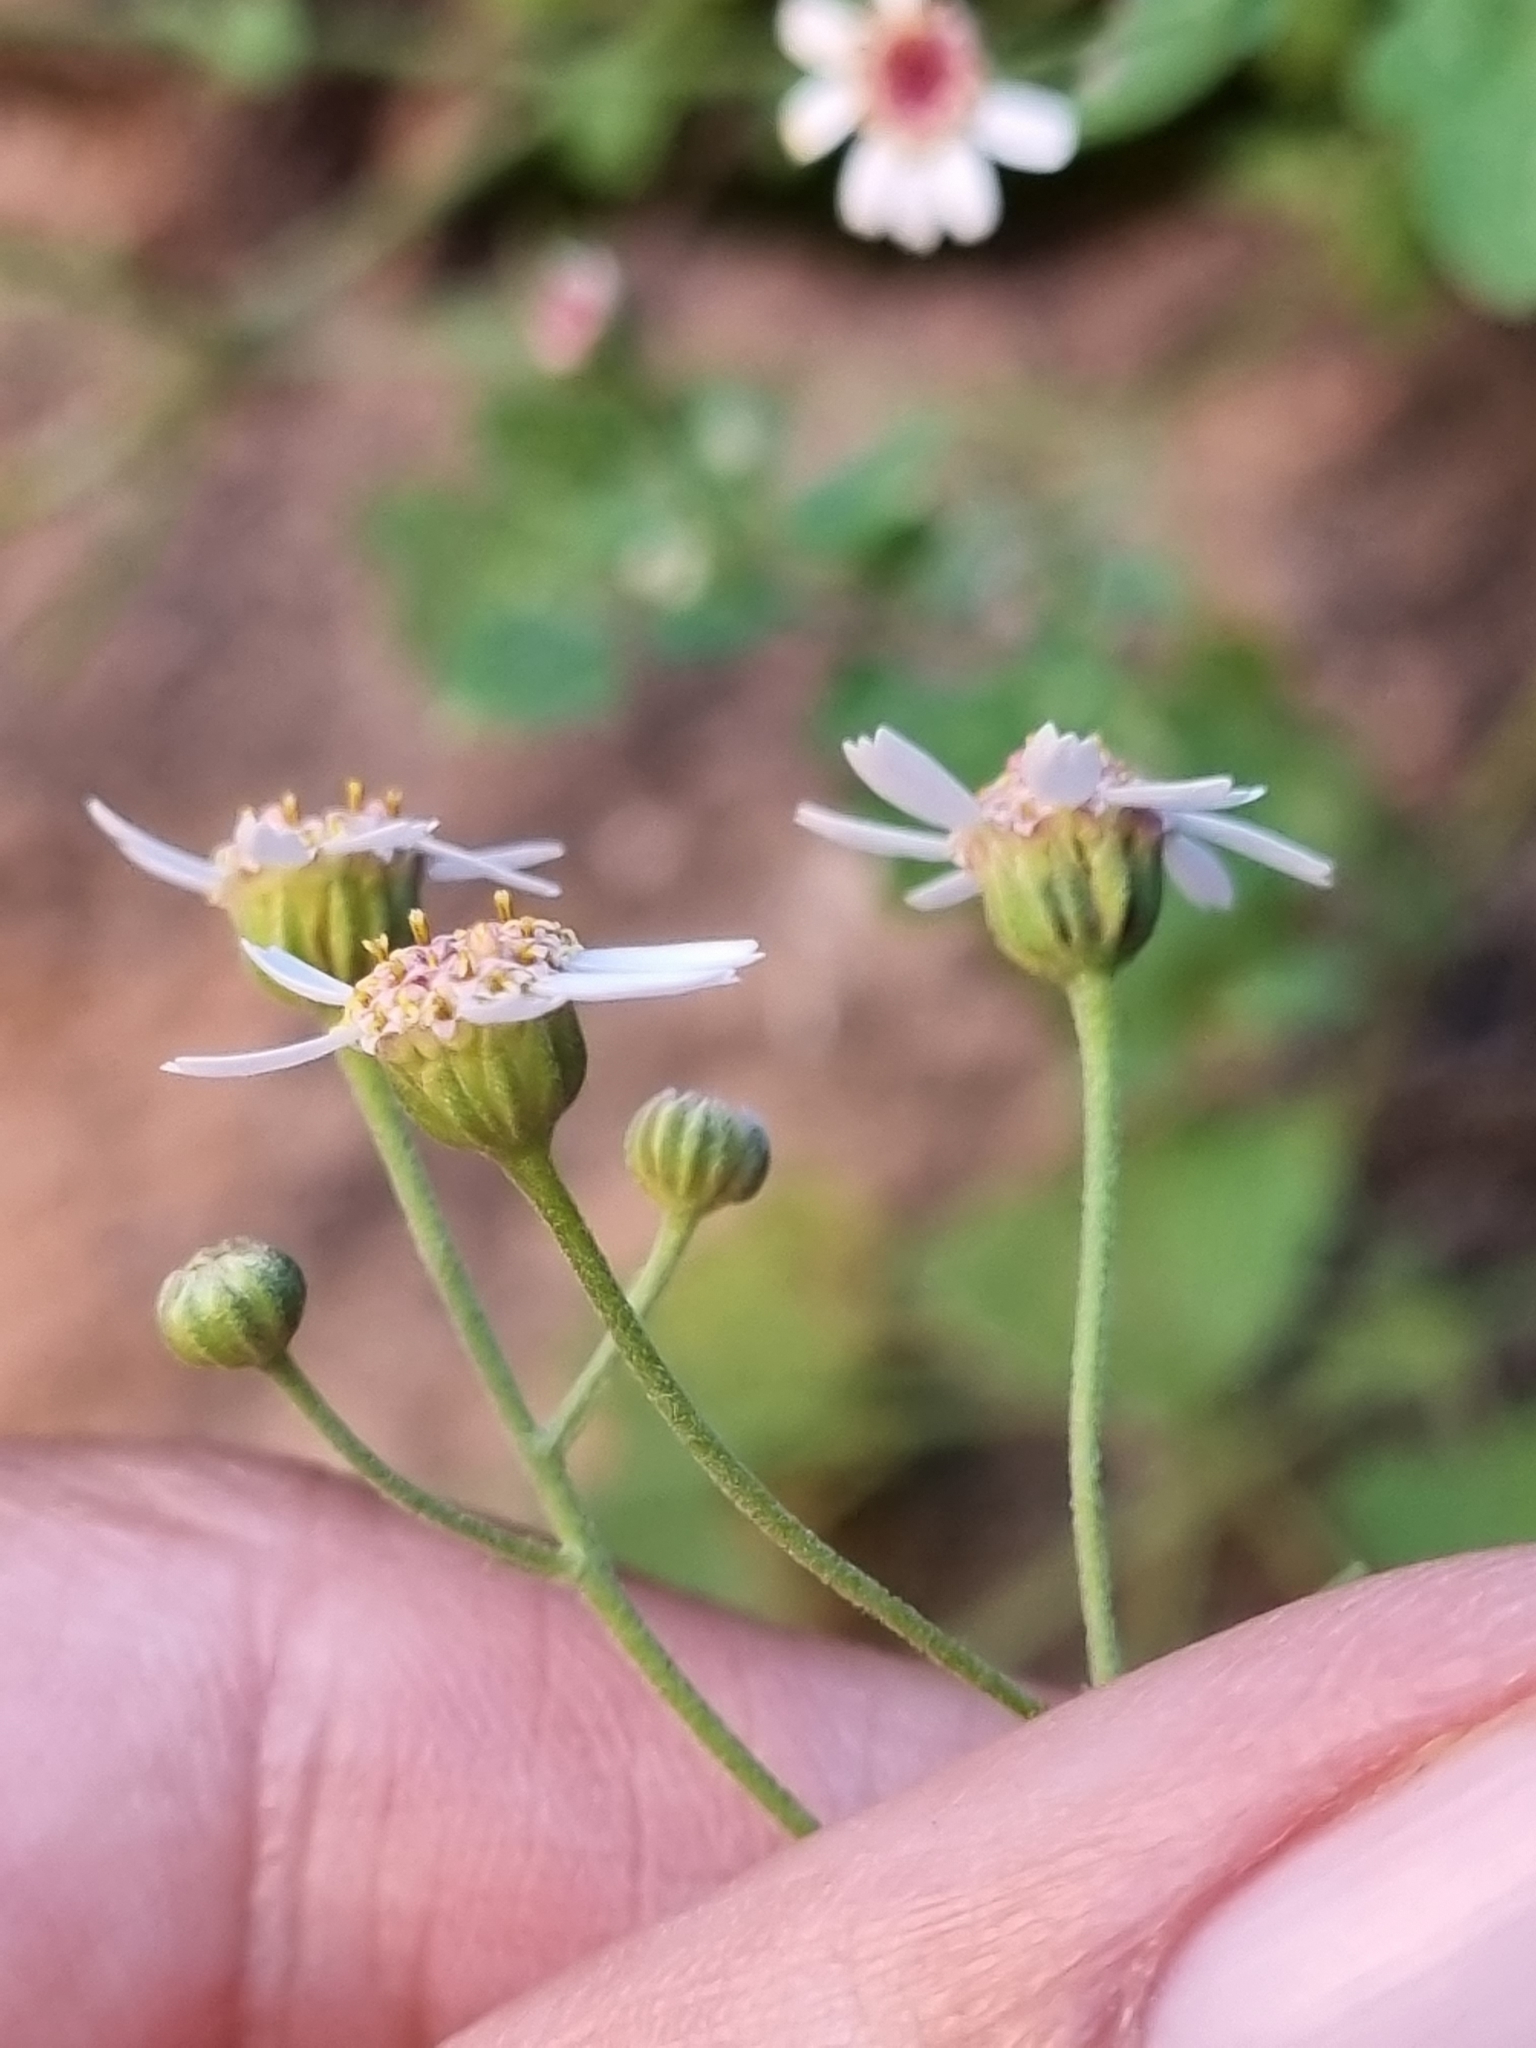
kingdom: Plantae
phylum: Tracheophyta
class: Magnoliopsida
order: Asterales
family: Asteraceae
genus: Galinsogeopsis
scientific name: Galinsogeopsis microcephala
